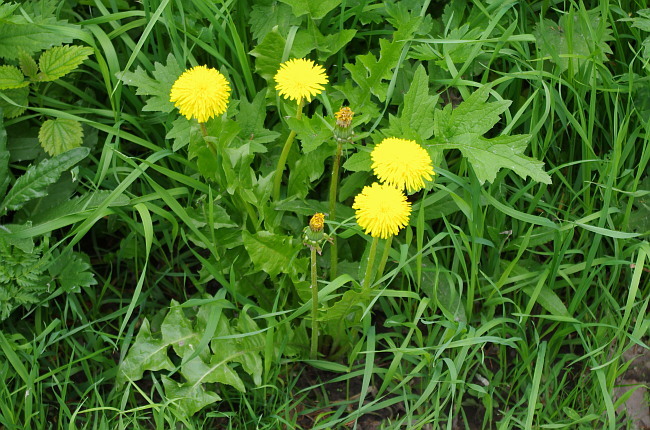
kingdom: Plantae
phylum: Tracheophyta
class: Magnoliopsida
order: Asterales
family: Asteraceae
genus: Taraxacum
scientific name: Taraxacum officinale
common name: Common dandelion
